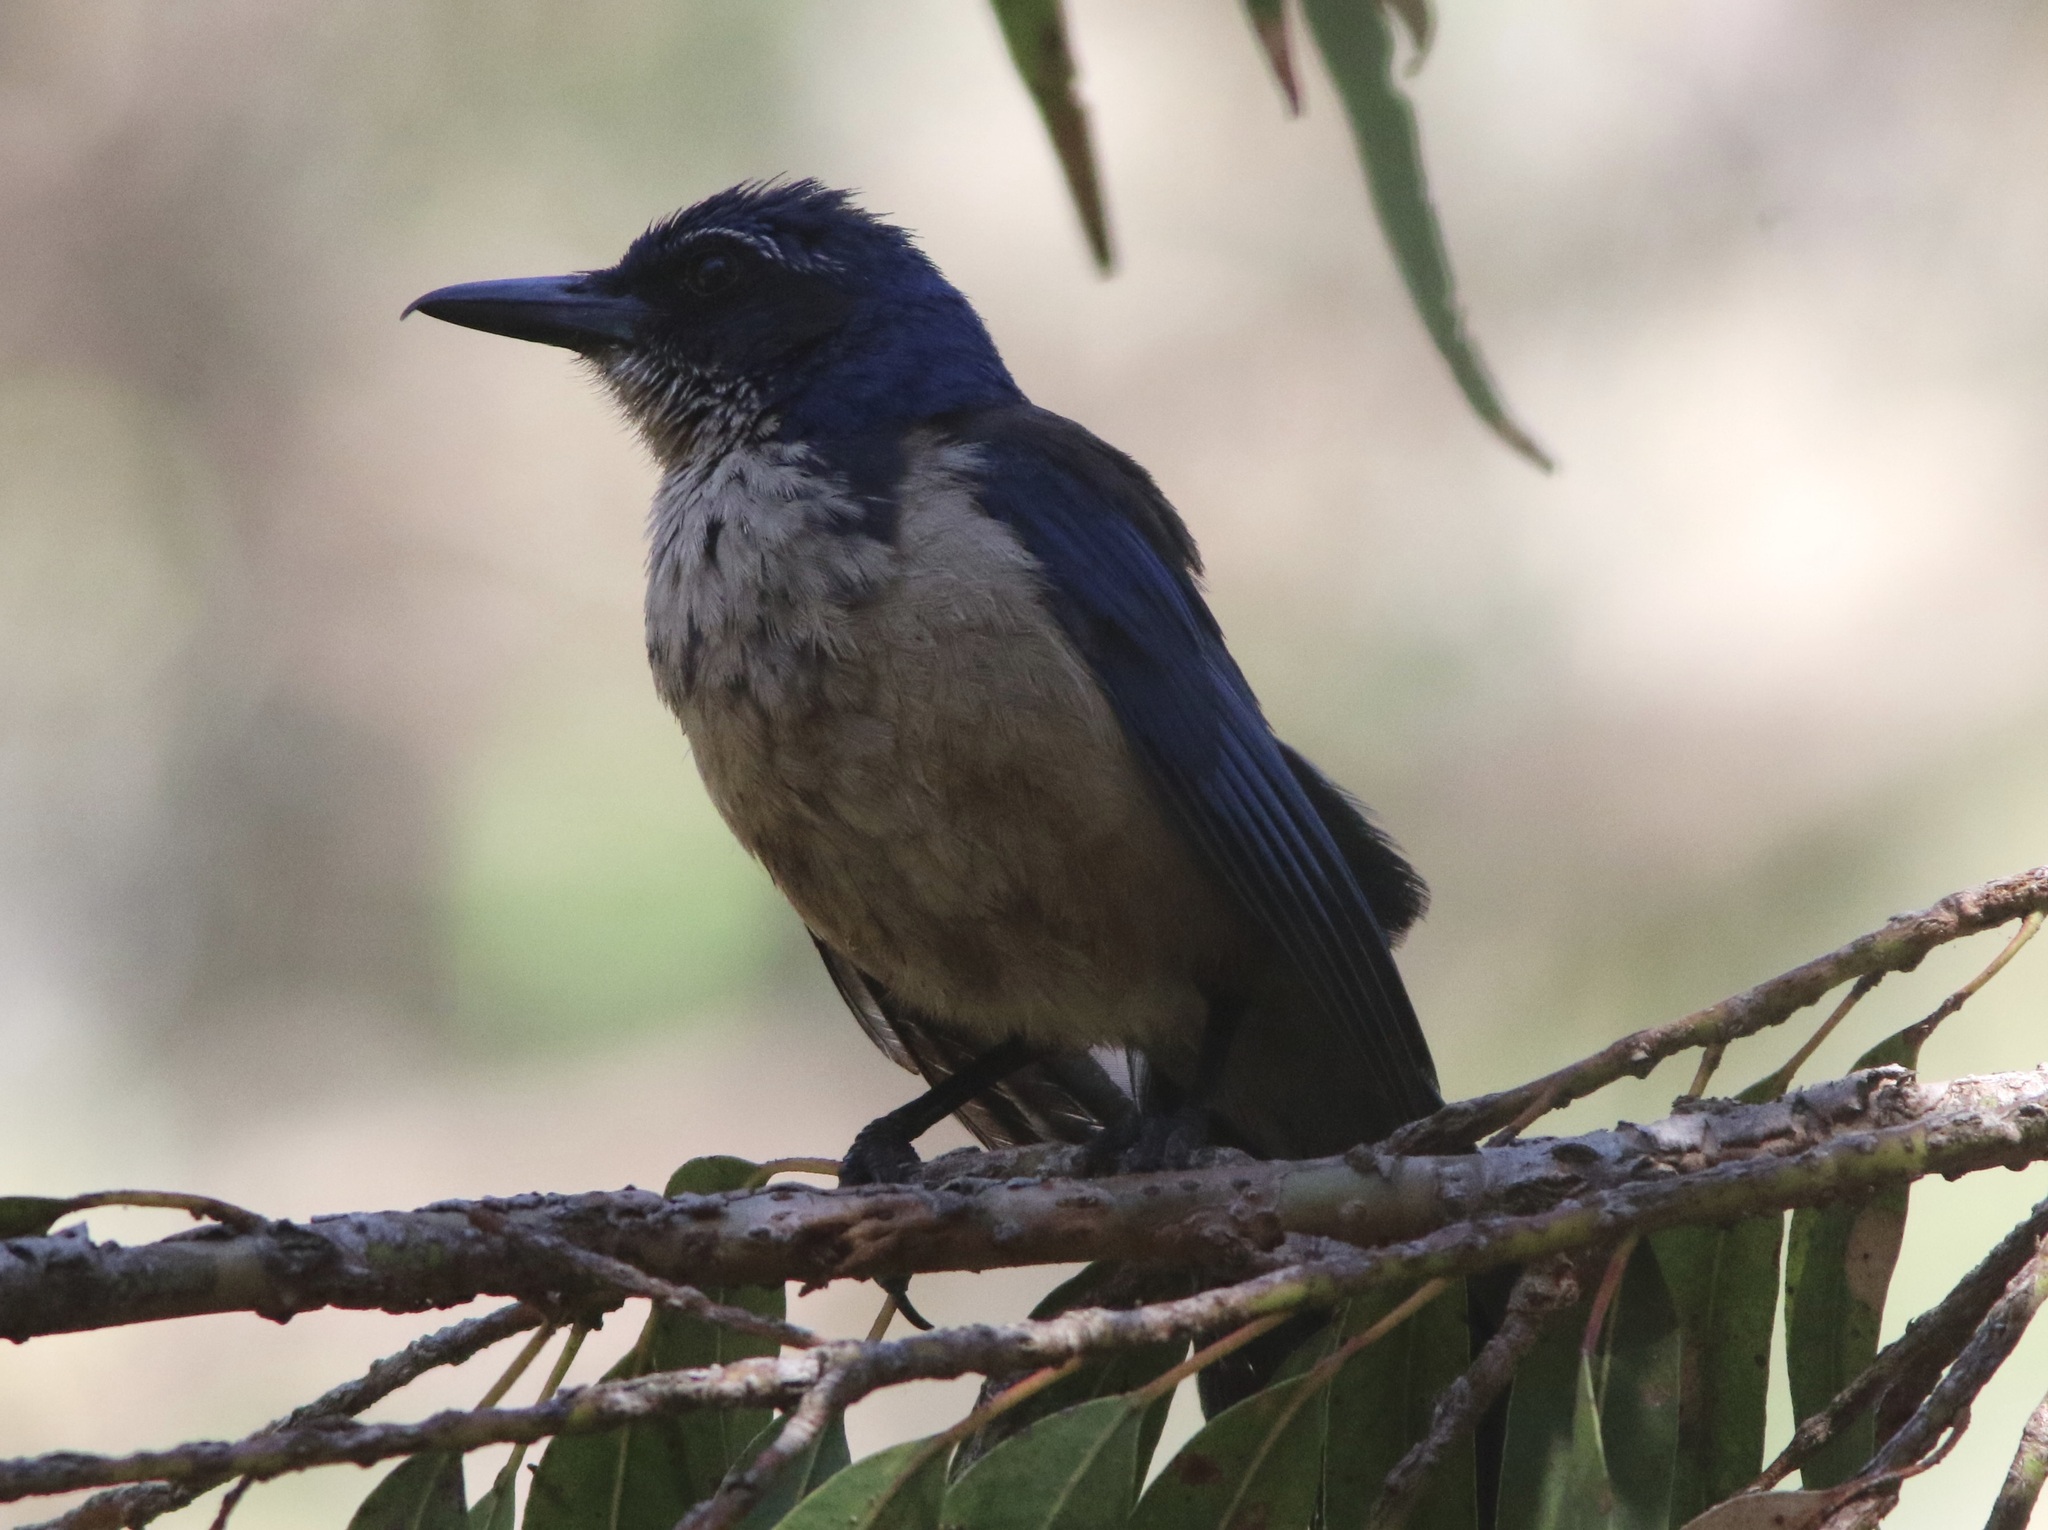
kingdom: Animalia
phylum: Chordata
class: Aves
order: Passeriformes
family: Corvidae
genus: Aphelocoma
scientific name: Aphelocoma insularis
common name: Island scrub-jay
